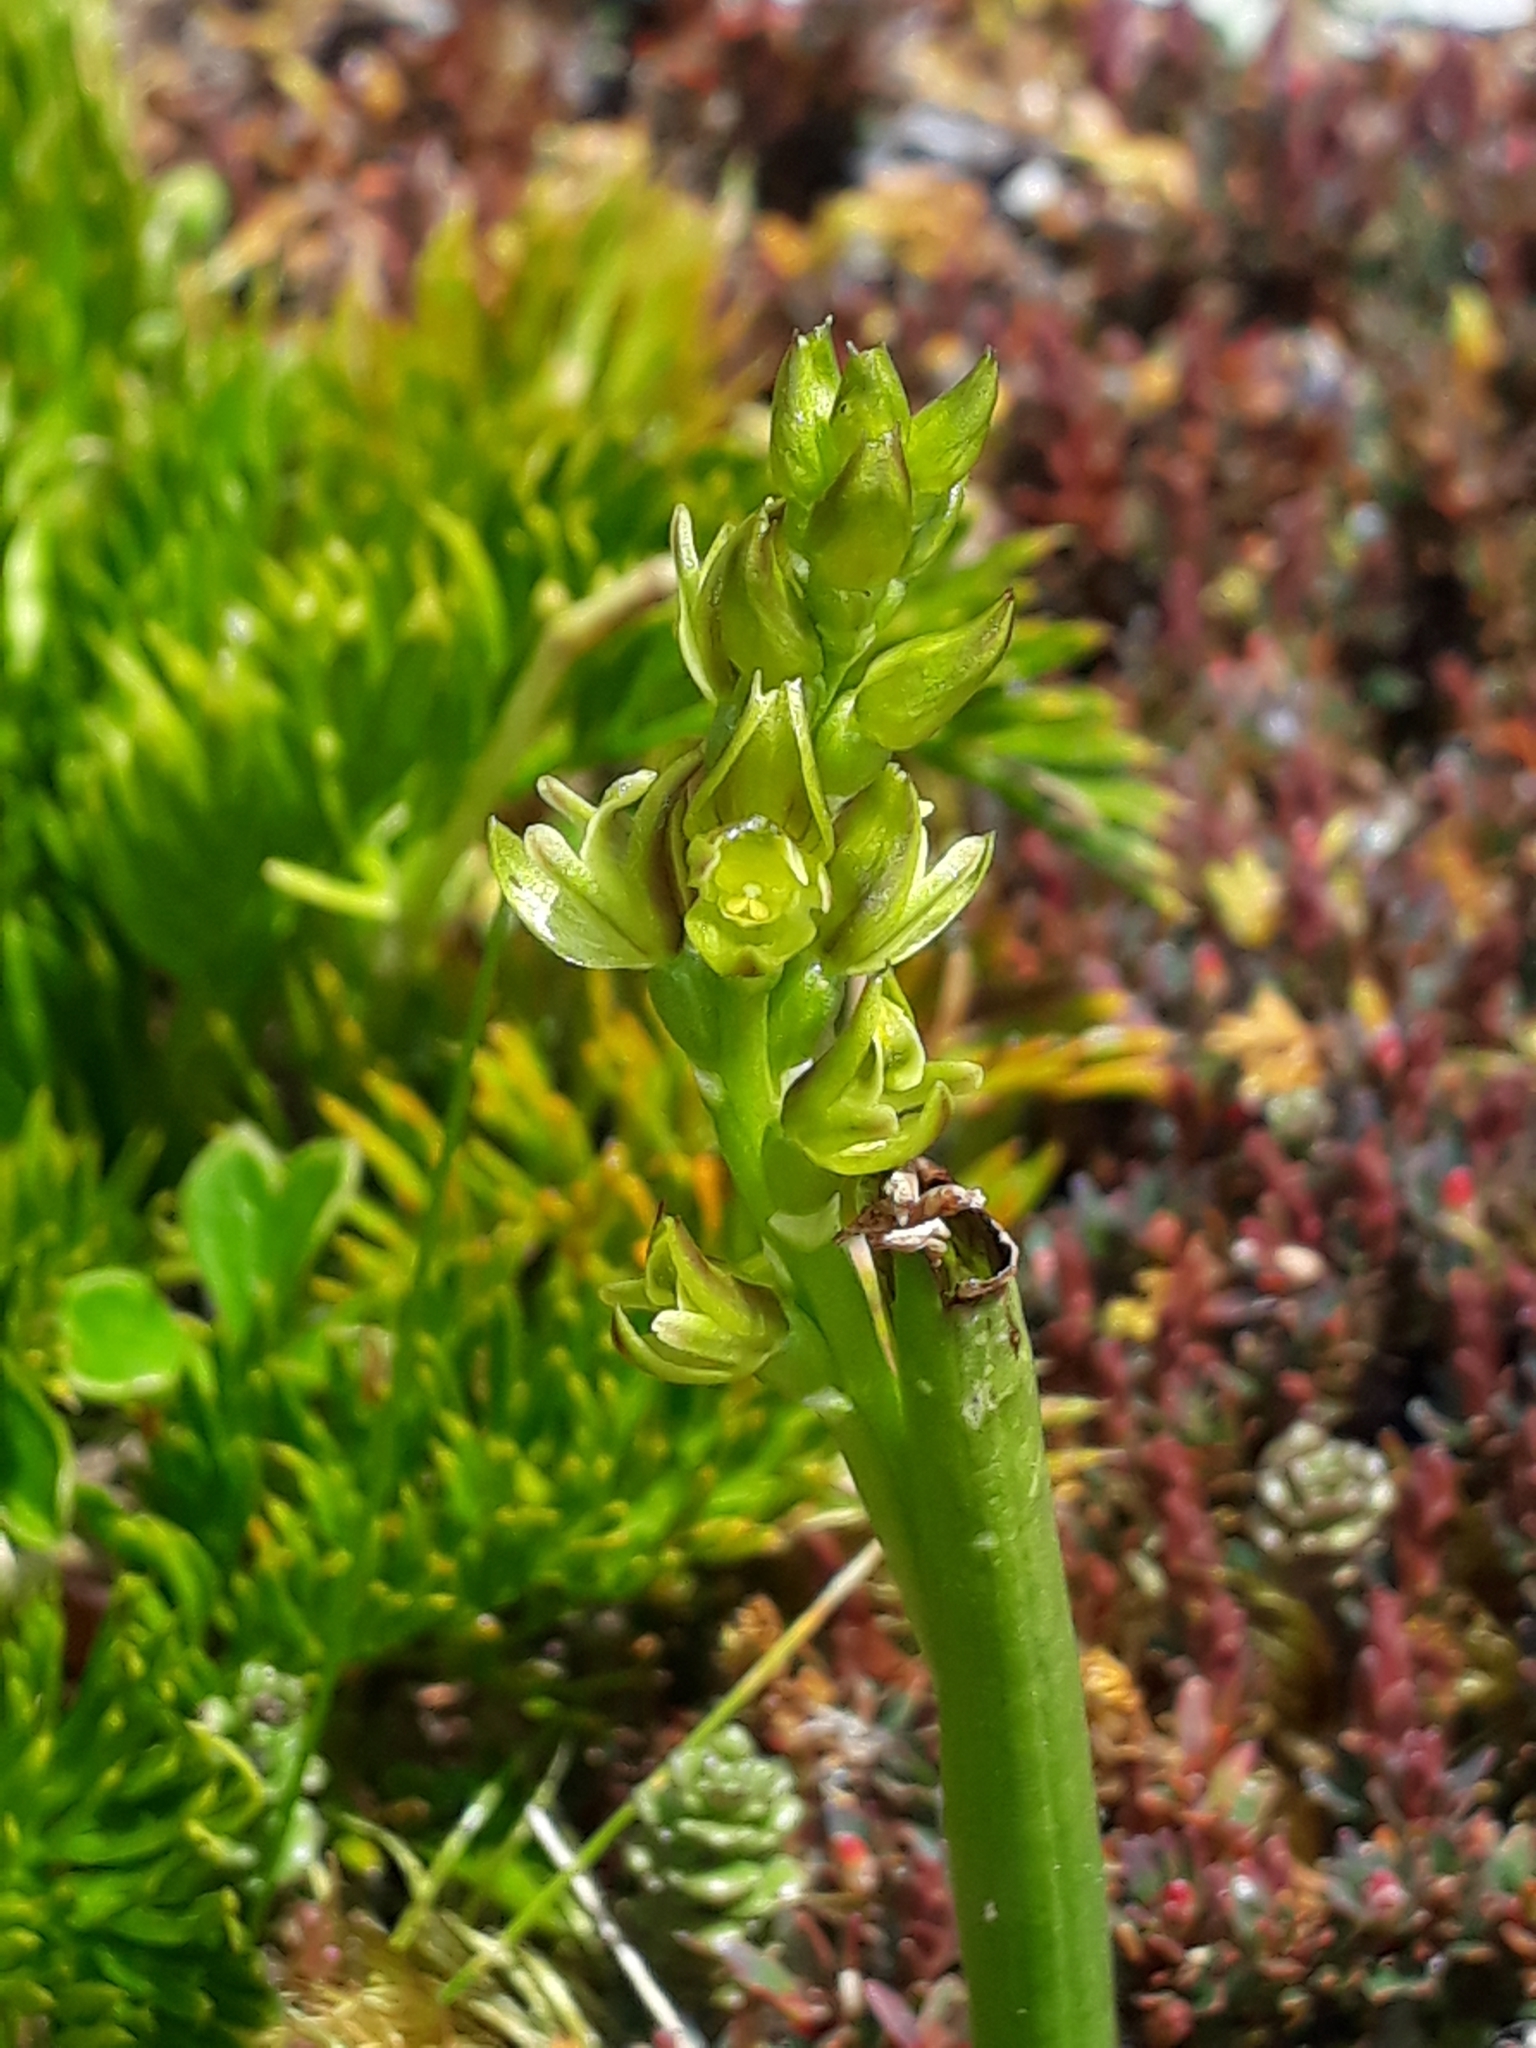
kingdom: Plantae
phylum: Tracheophyta
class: Liliopsida
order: Asparagales
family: Orchidaceae
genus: Prasophyllum
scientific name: Prasophyllum colensoi
